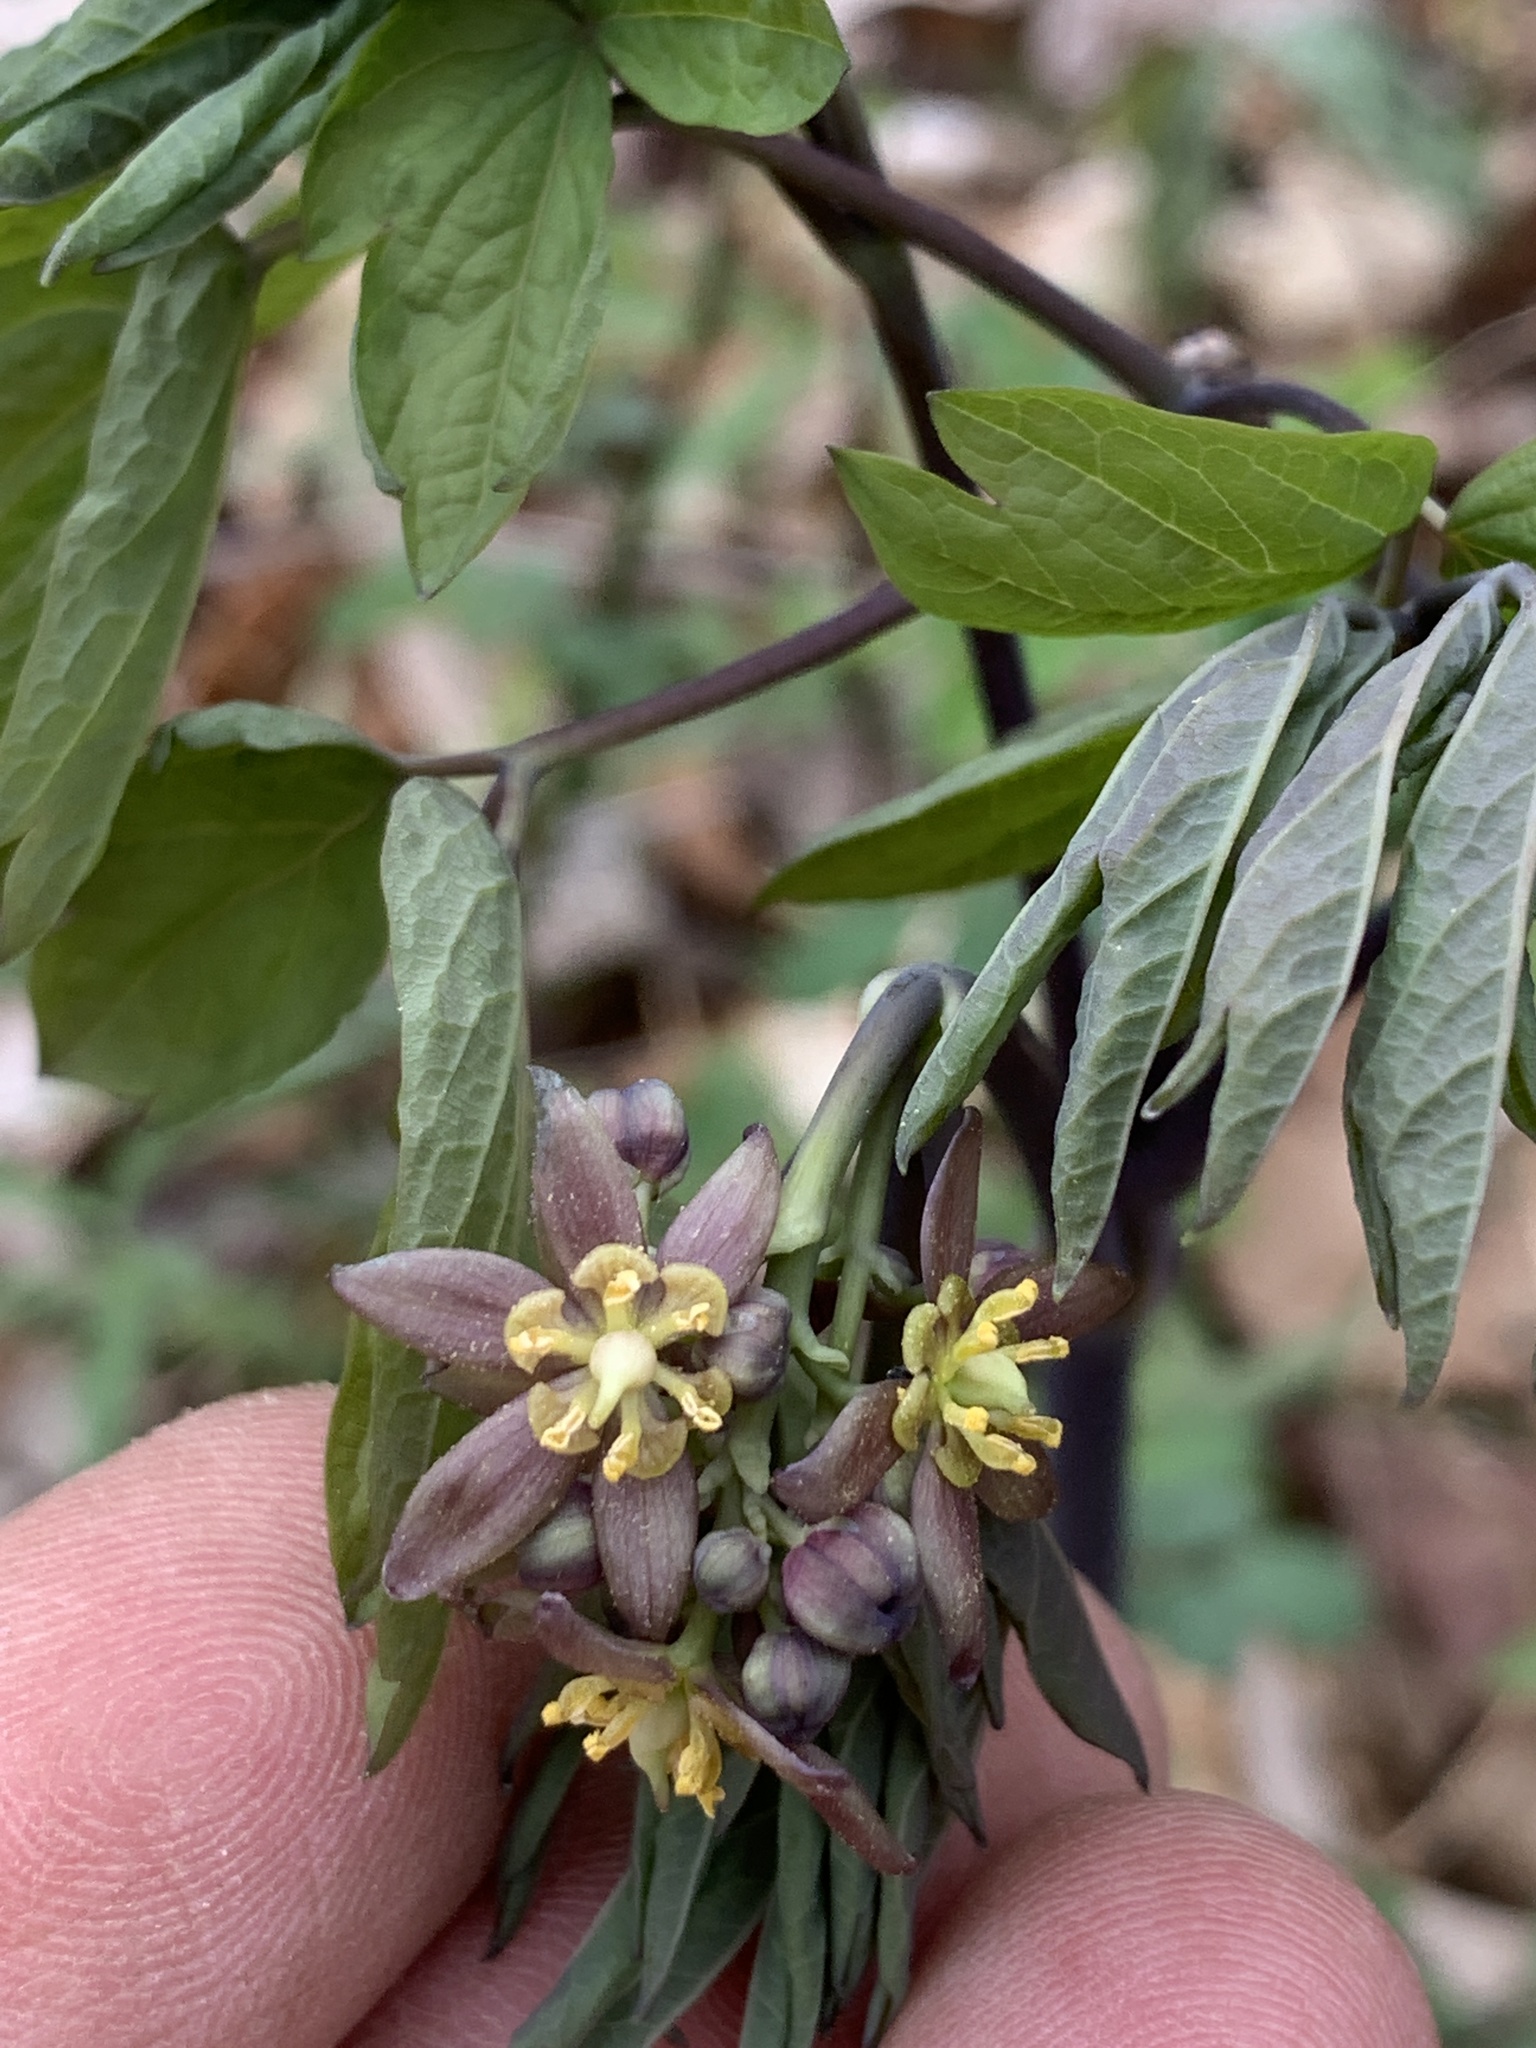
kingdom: Plantae
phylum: Tracheophyta
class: Magnoliopsida
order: Ranunculales
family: Berberidaceae
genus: Caulophyllum
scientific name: Caulophyllum giganteum
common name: Blue cohosh
